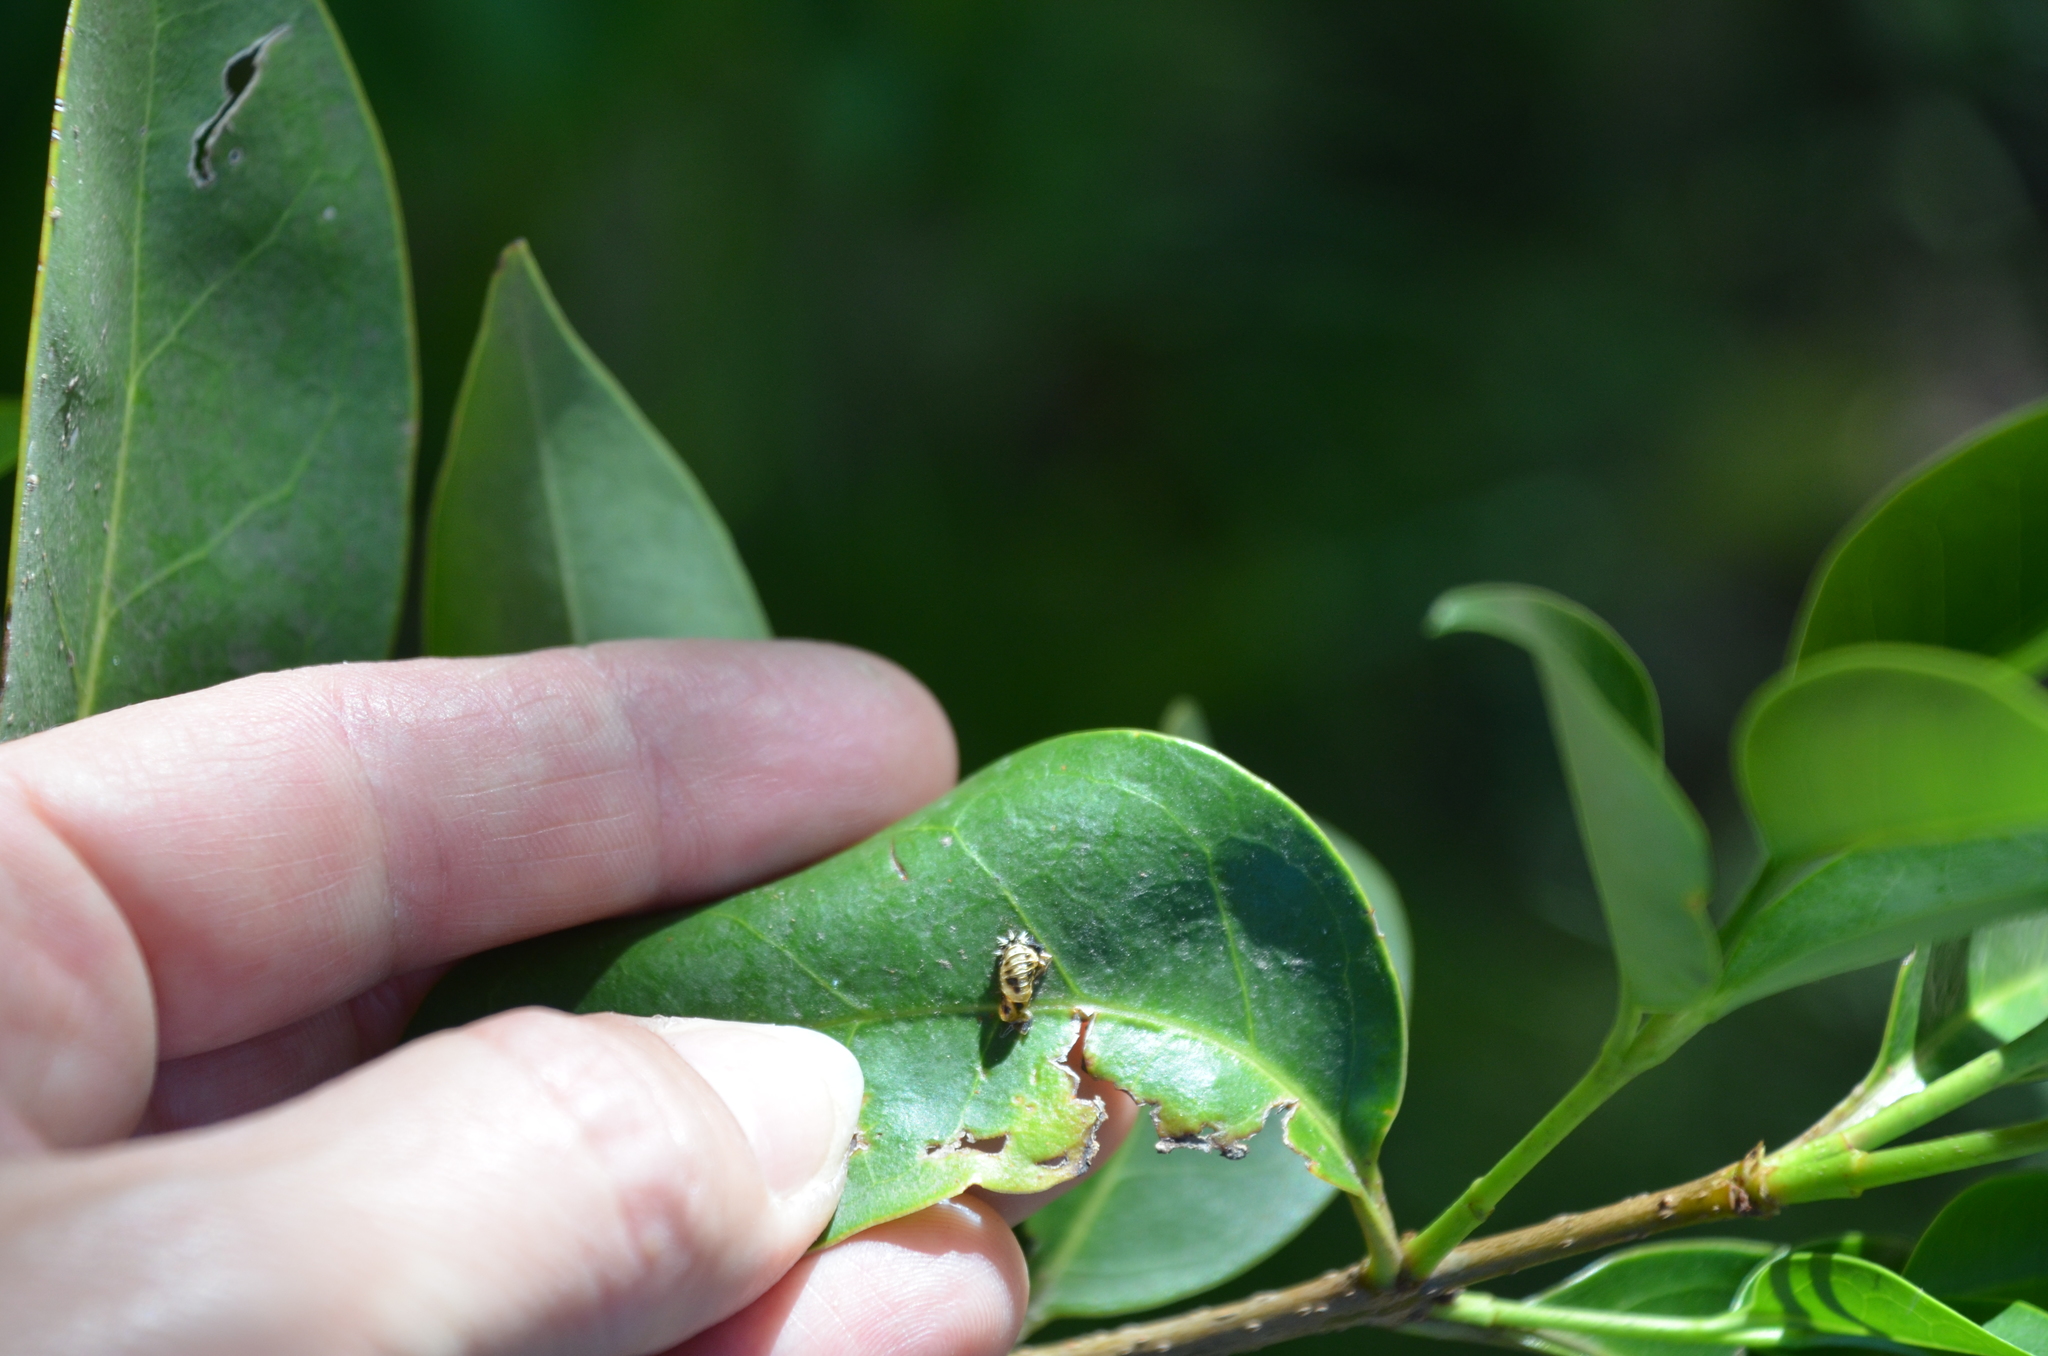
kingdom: Animalia
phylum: Arthropoda
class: Insecta
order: Coleoptera
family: Coccinellidae
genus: Harmonia
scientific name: Harmonia axyridis
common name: Harlequin ladybird
